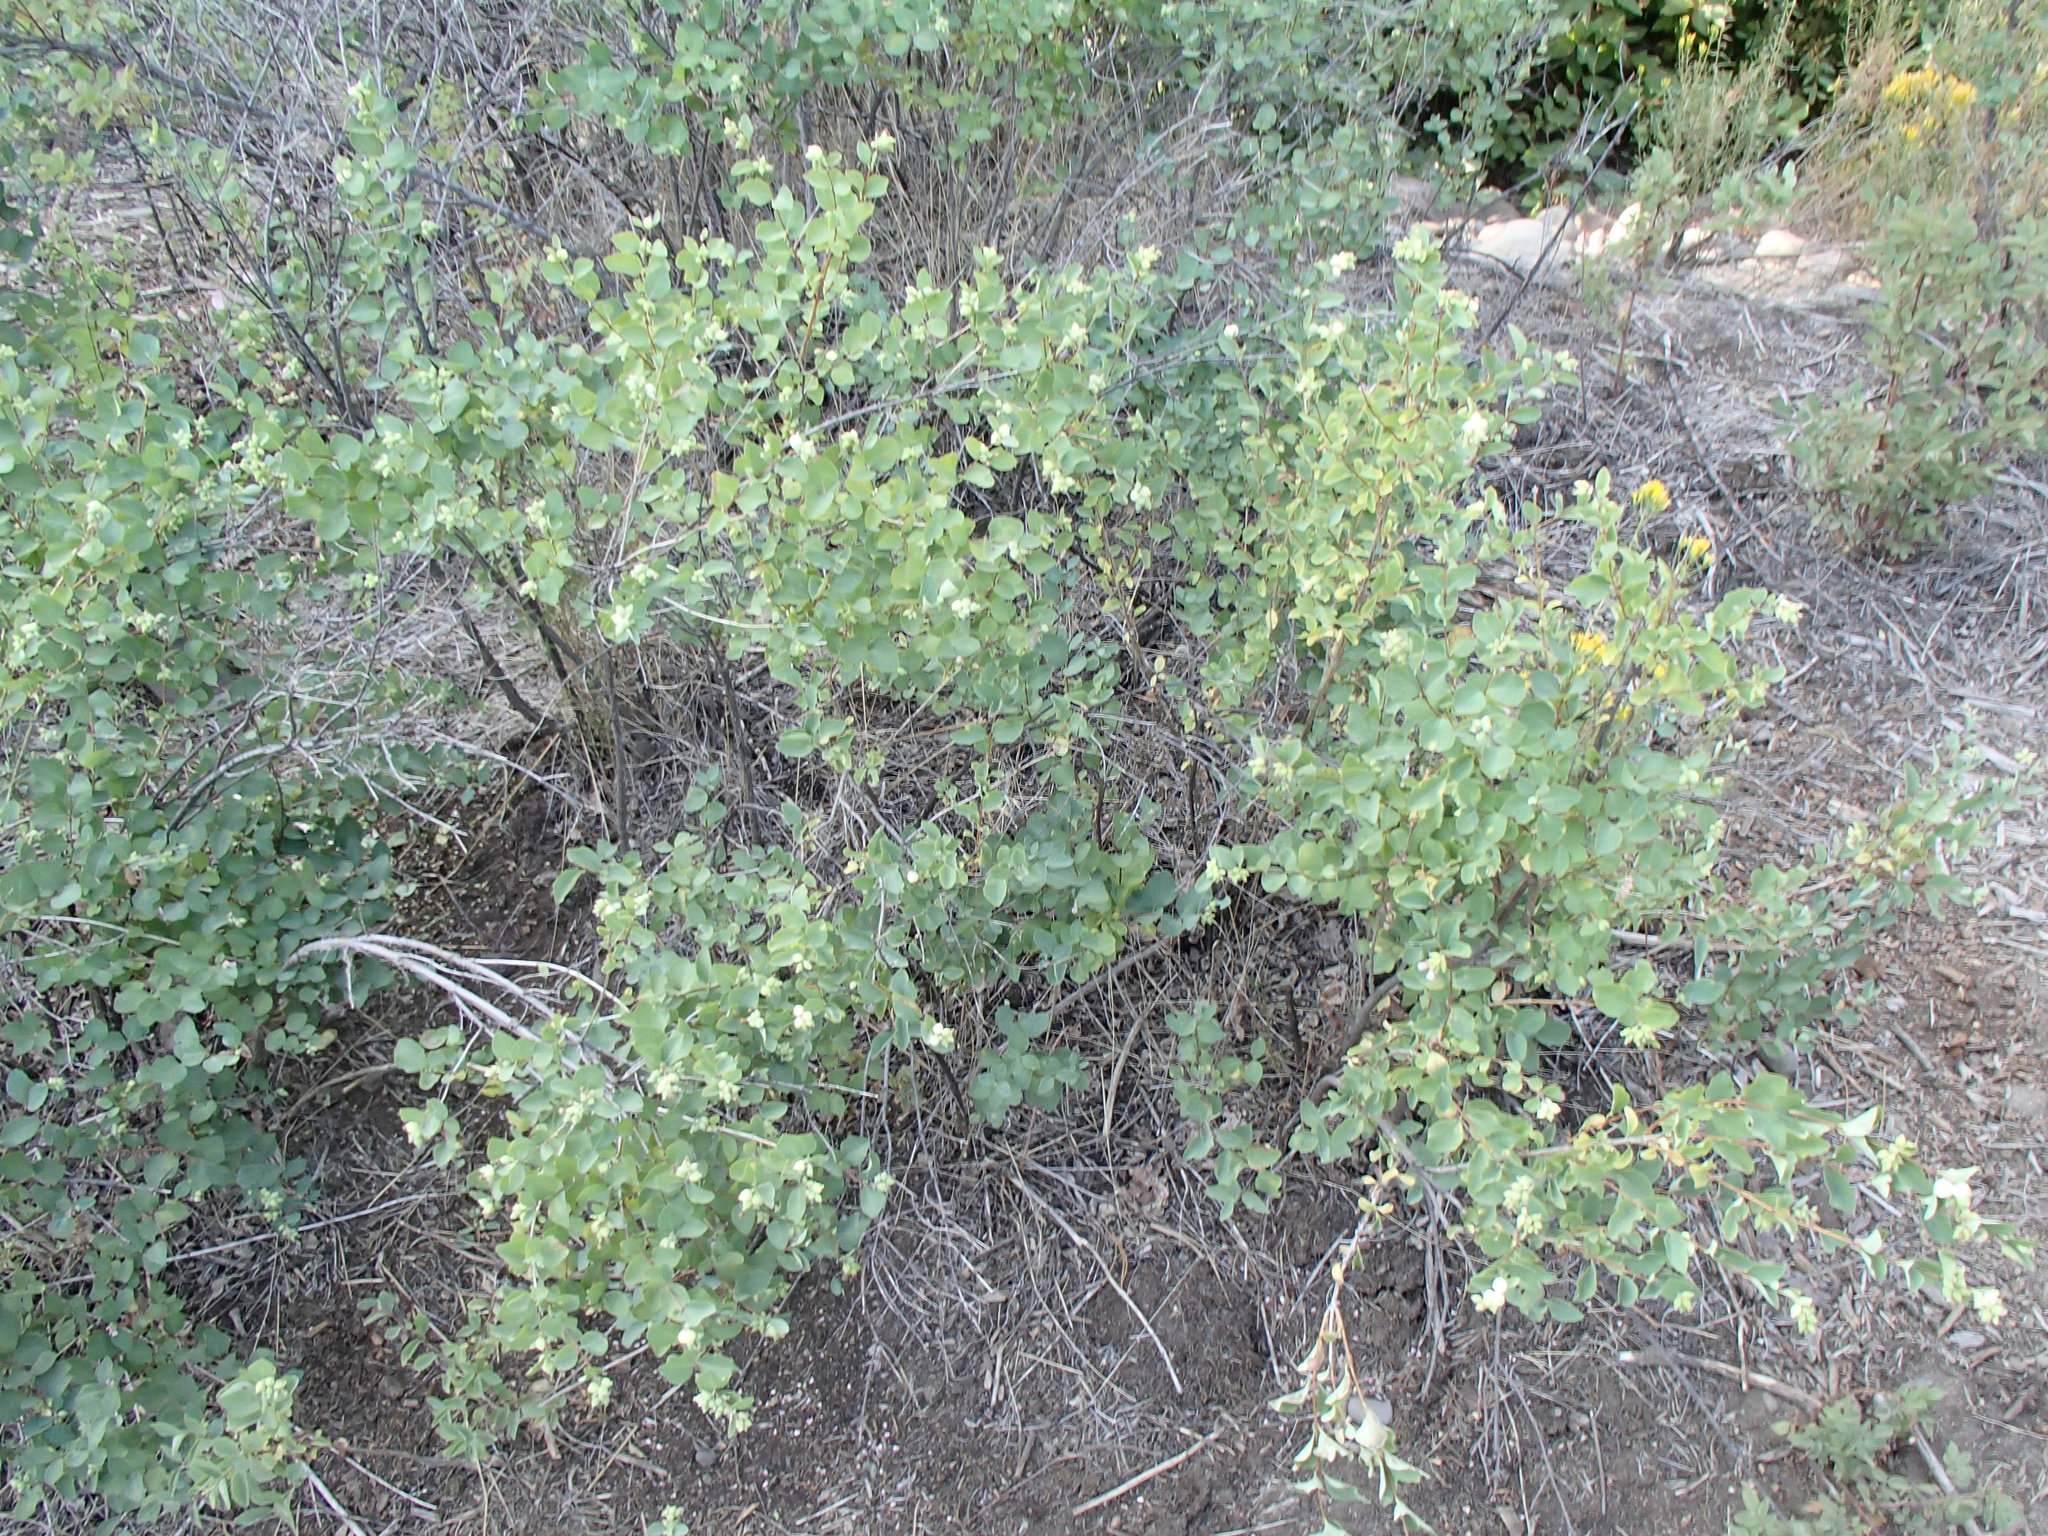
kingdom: Plantae
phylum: Tracheophyta
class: Magnoliopsida
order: Dipsacales
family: Caprifoliaceae
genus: Symphoricarpos
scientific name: Symphoricarpos albus
